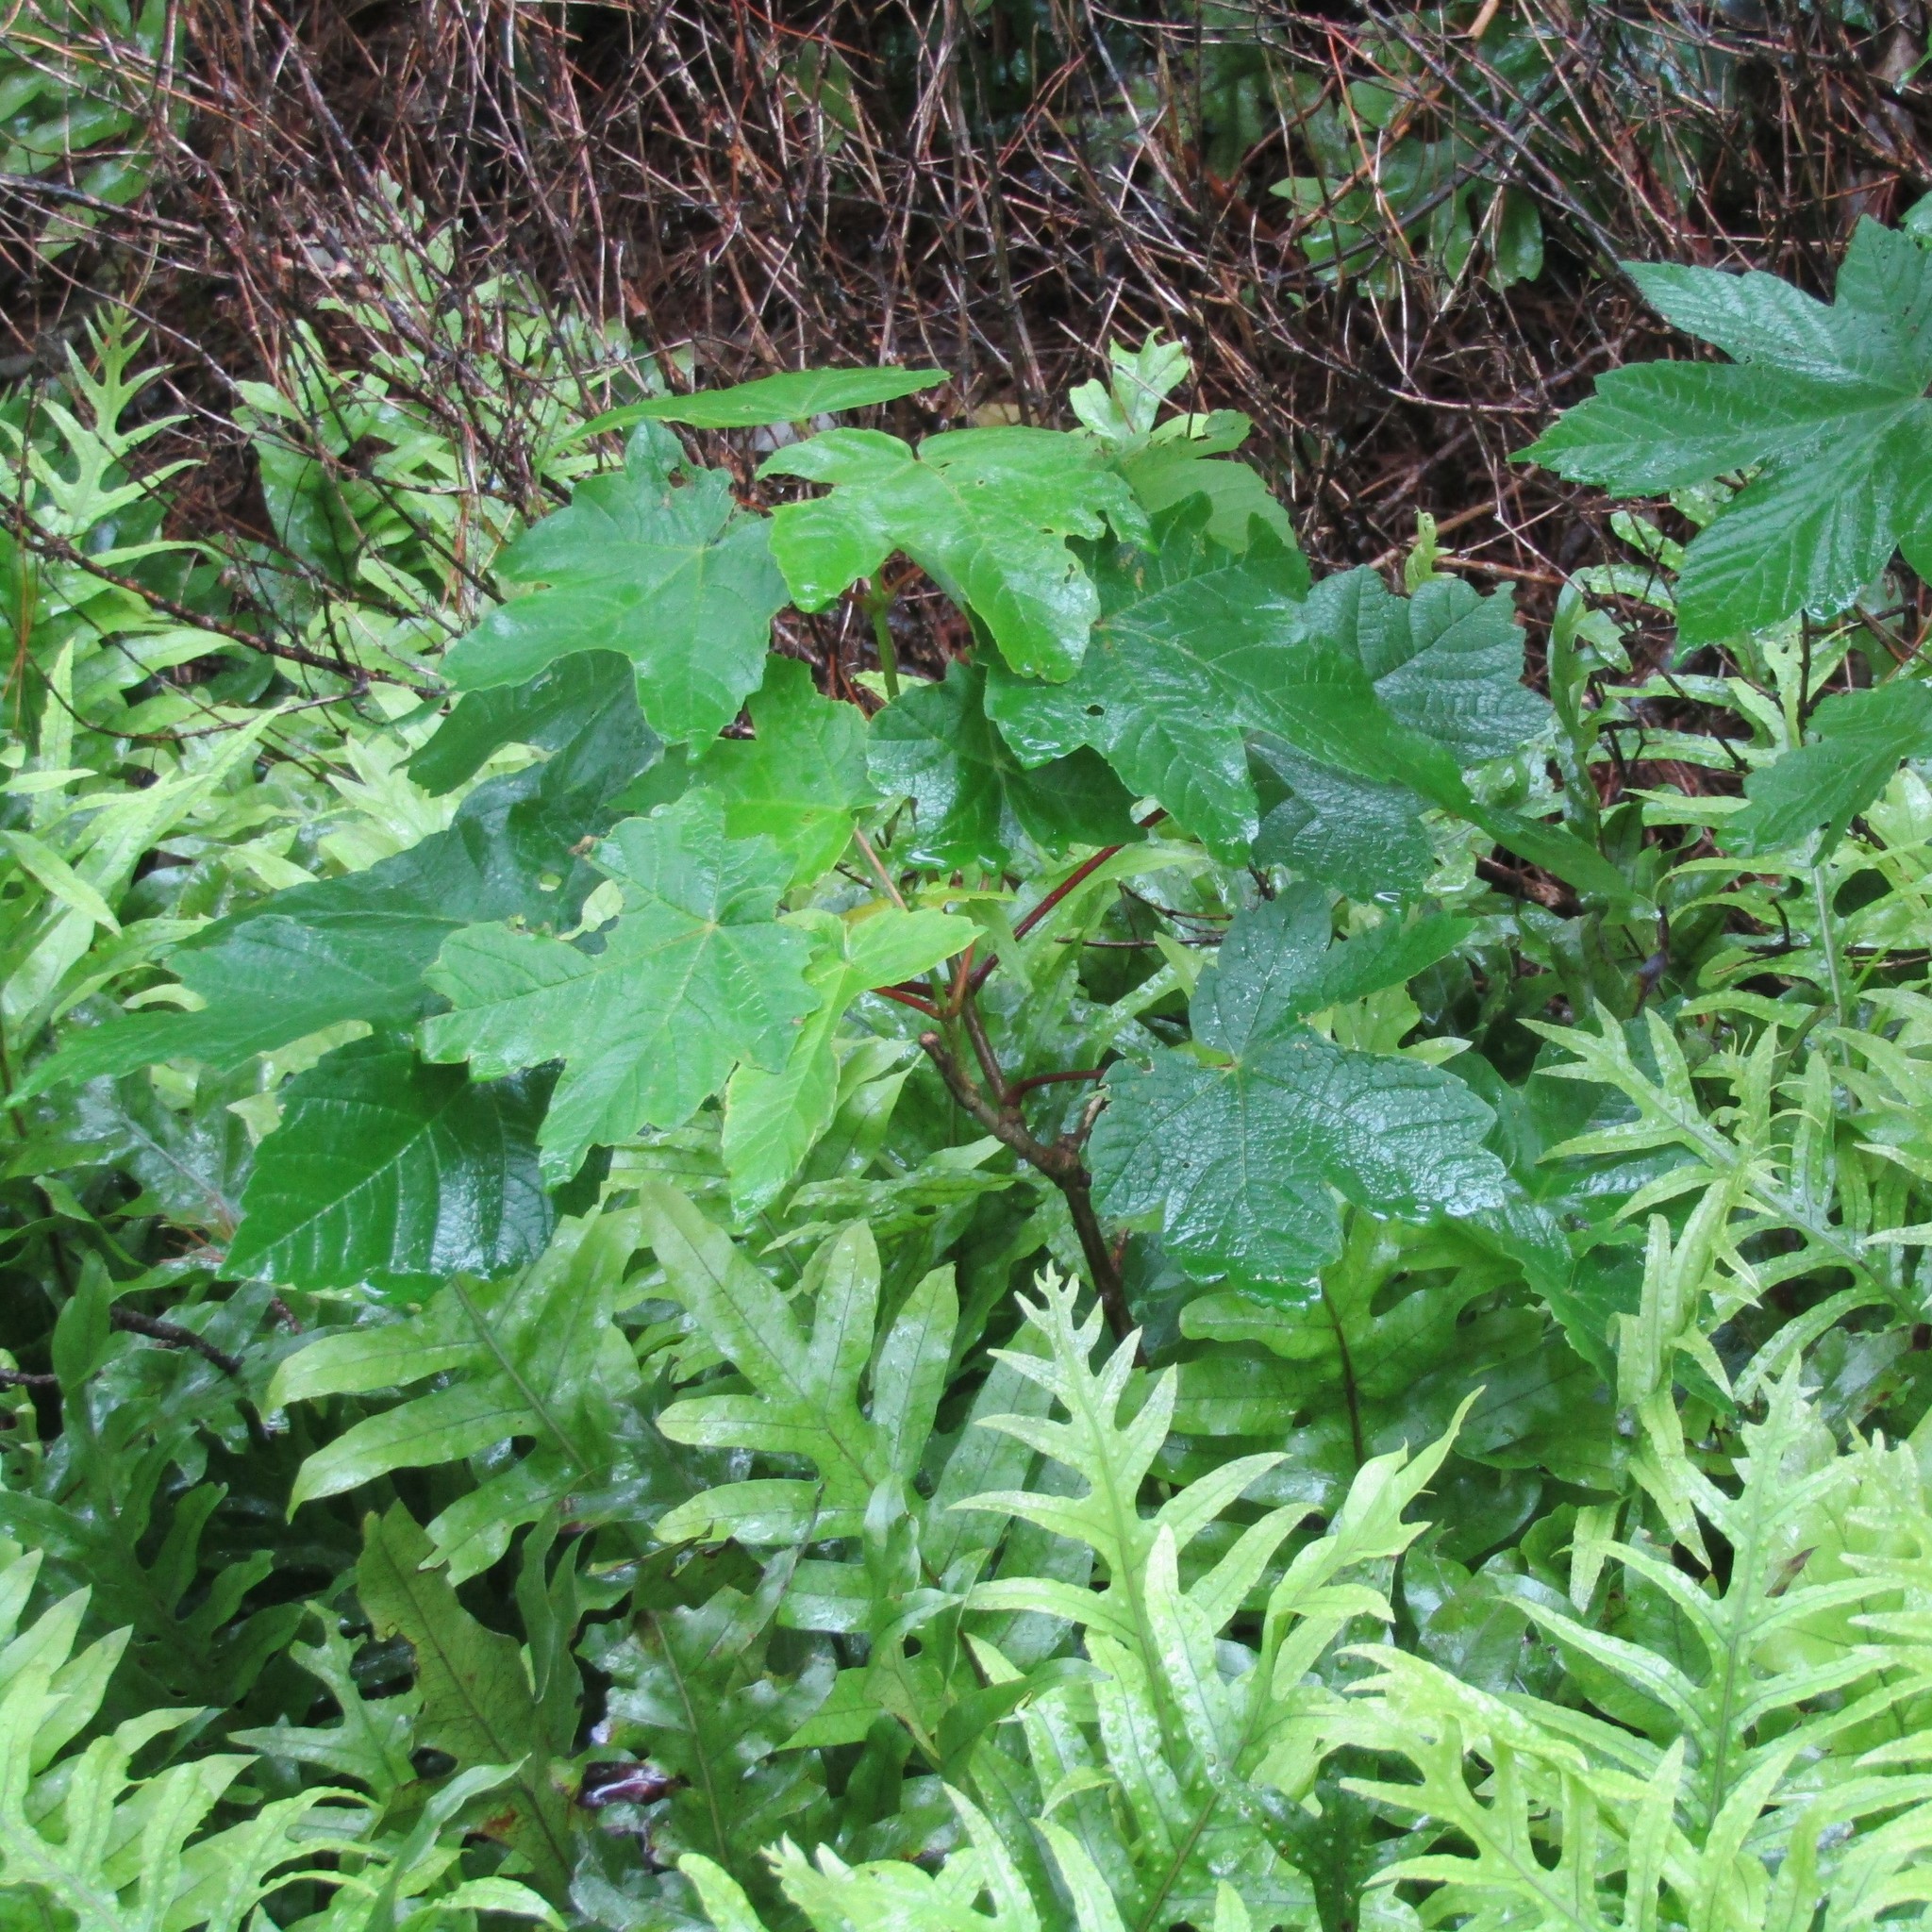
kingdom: Plantae
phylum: Tracheophyta
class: Magnoliopsida
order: Sapindales
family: Sapindaceae
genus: Acer
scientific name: Acer pseudoplatanus
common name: Sycamore
